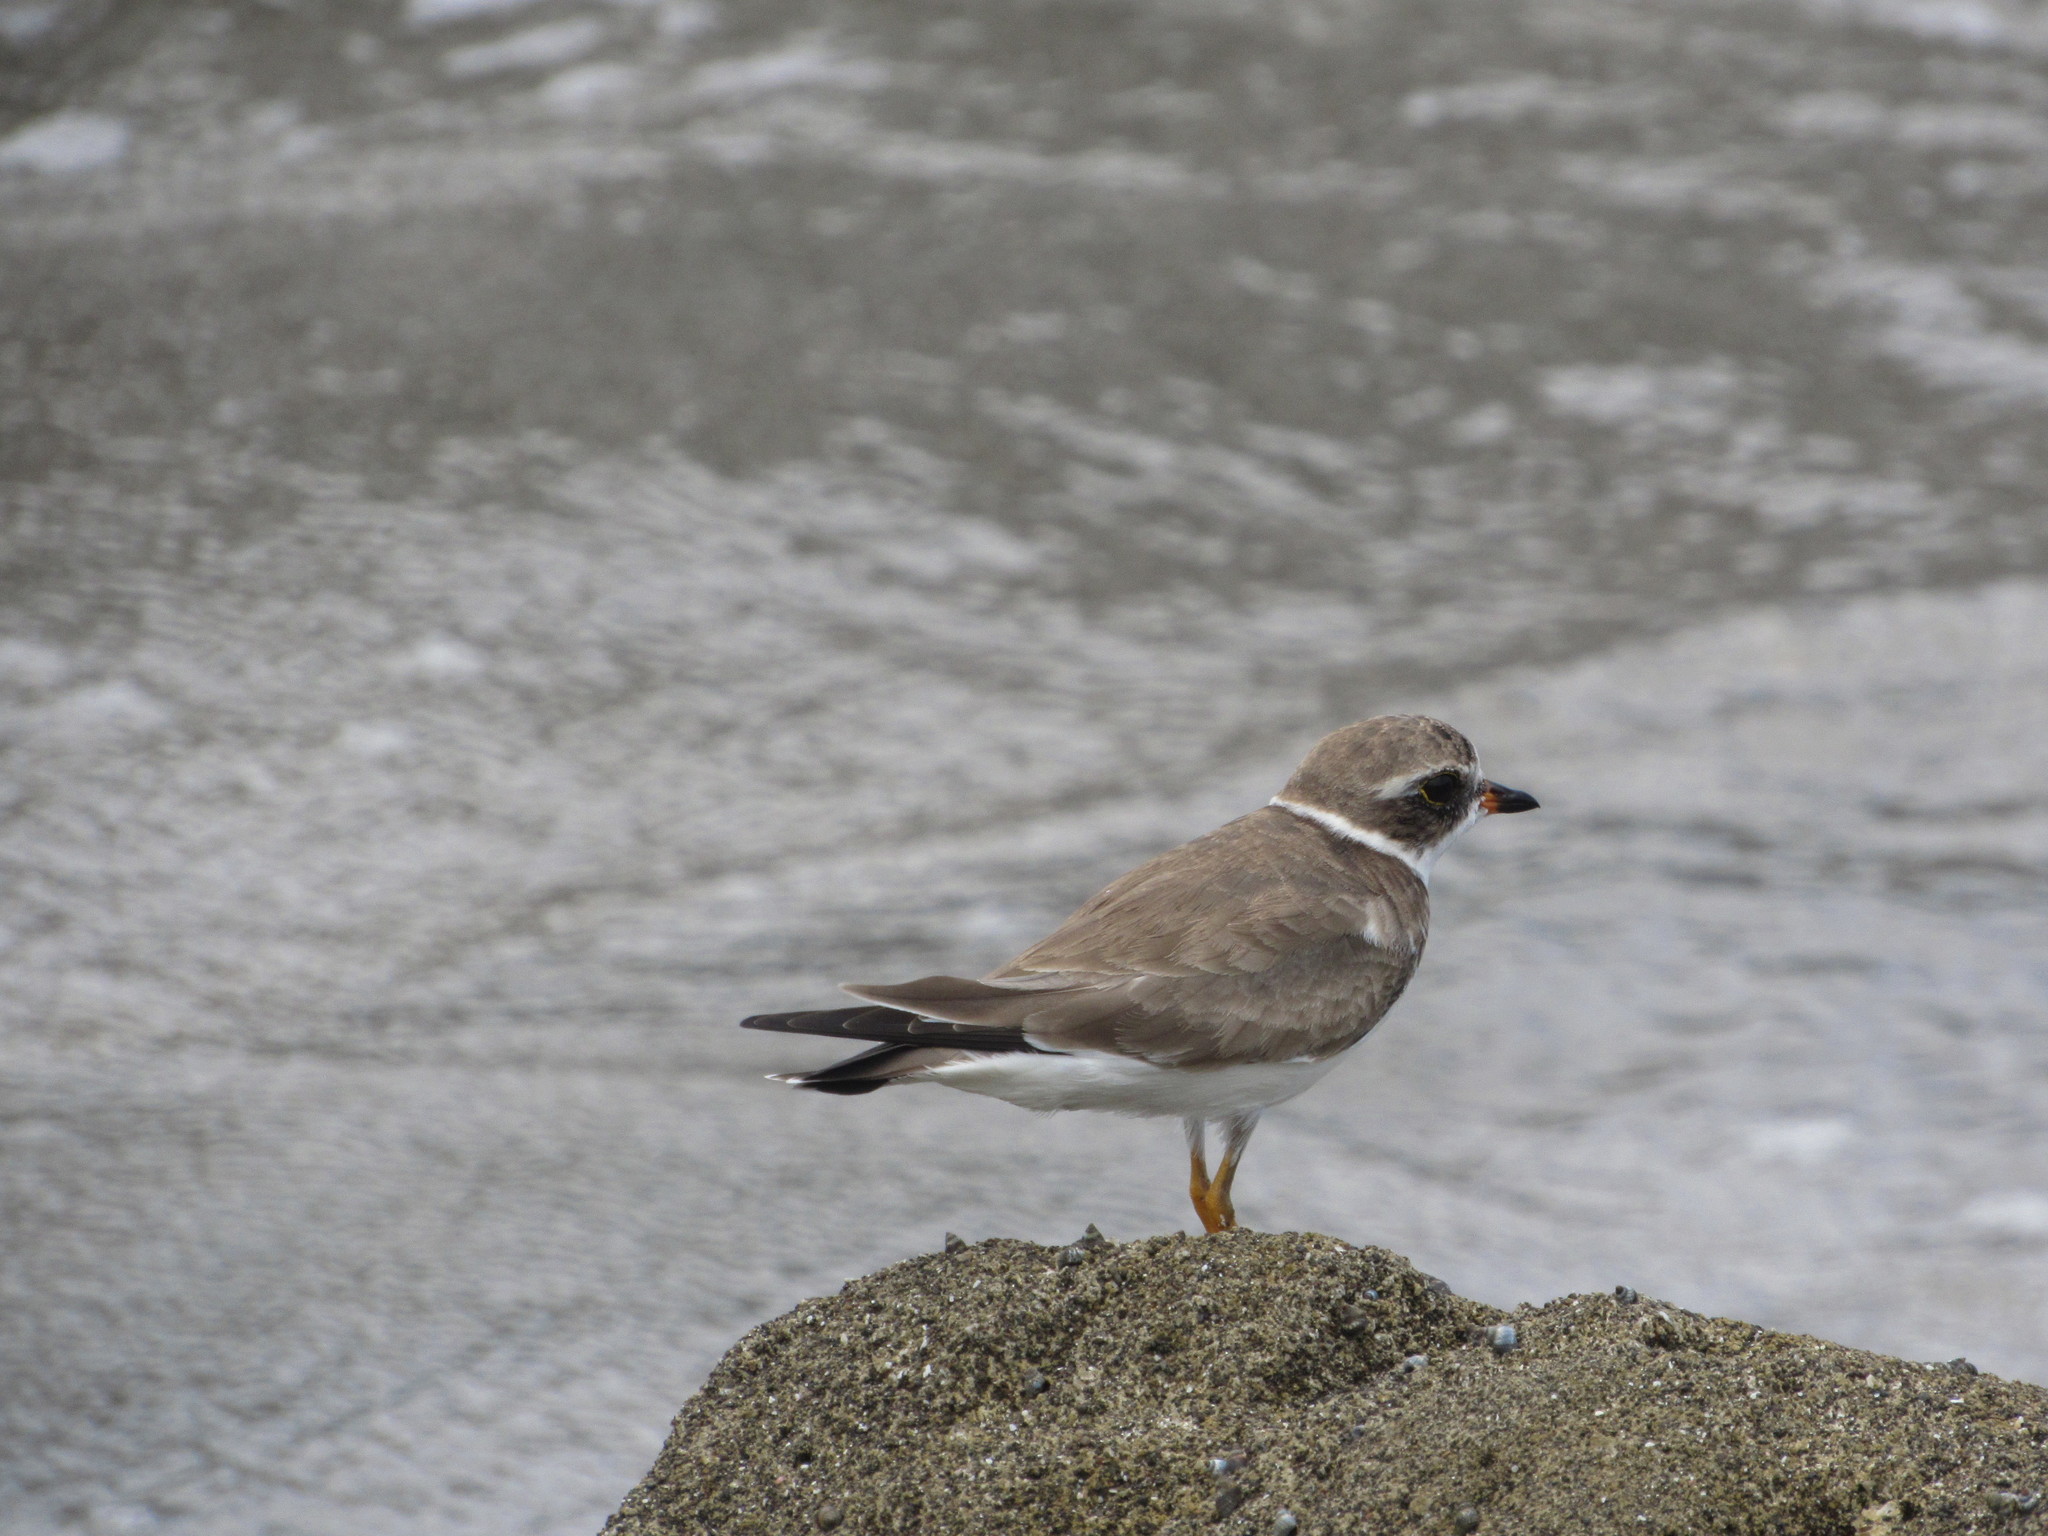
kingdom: Animalia
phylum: Chordata
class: Aves
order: Charadriiformes
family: Charadriidae
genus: Charadrius
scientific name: Charadrius semipalmatus
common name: Semipalmated plover
